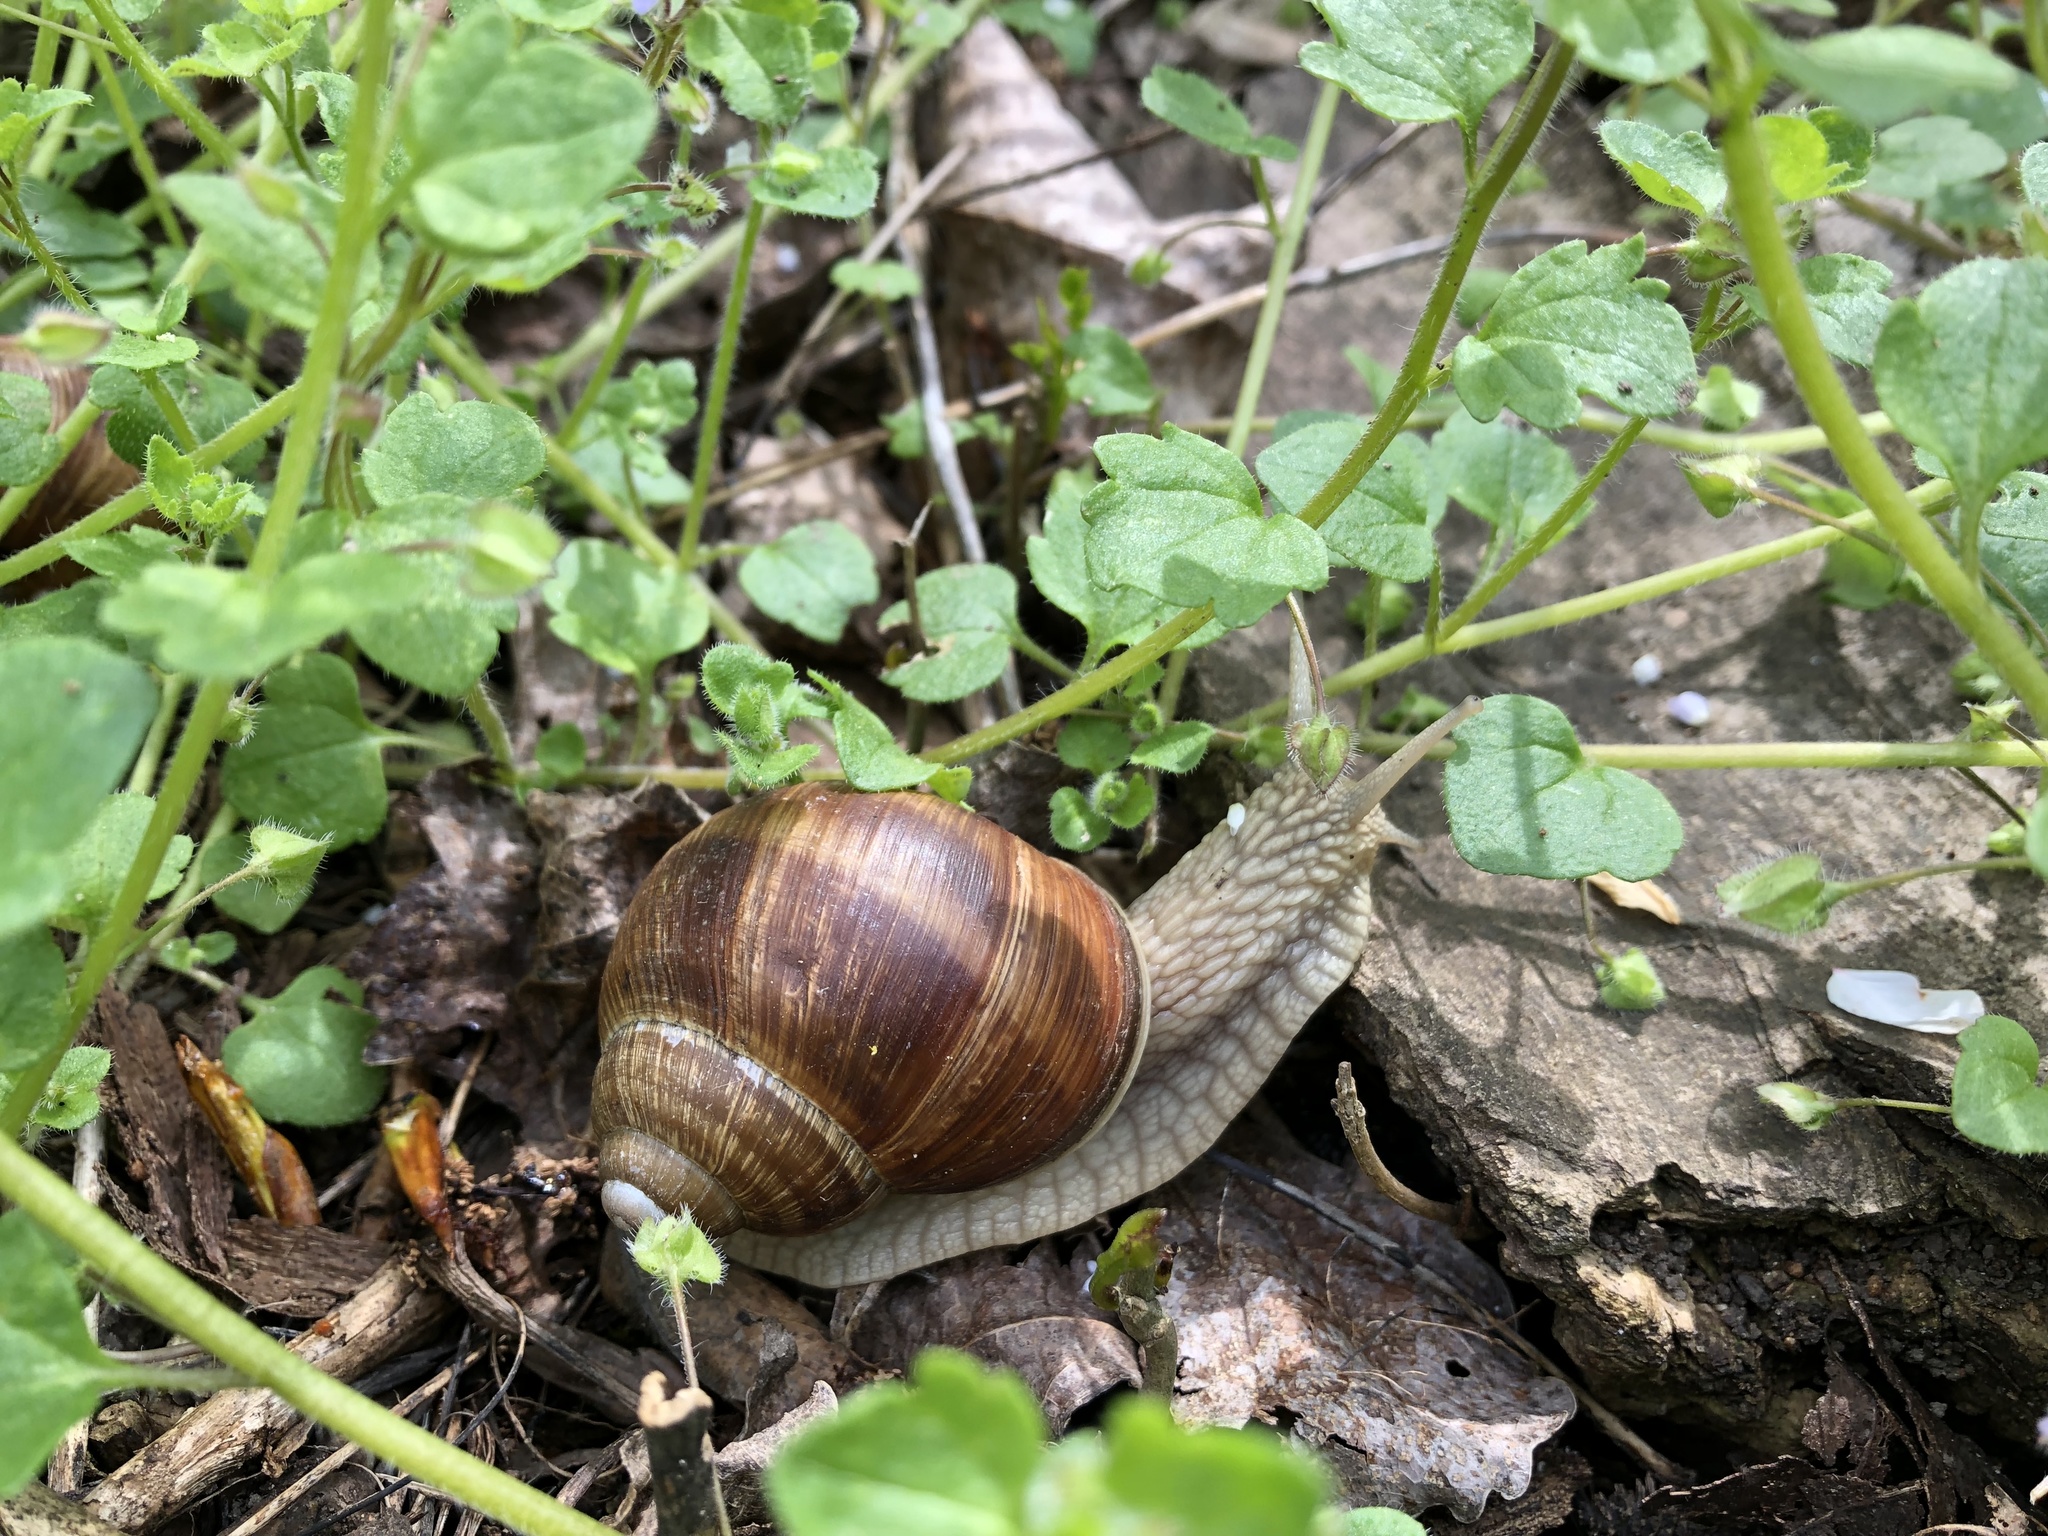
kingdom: Animalia
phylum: Mollusca
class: Gastropoda
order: Stylommatophora
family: Helicidae
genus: Helix
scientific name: Helix pomatia
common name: Roman snail
